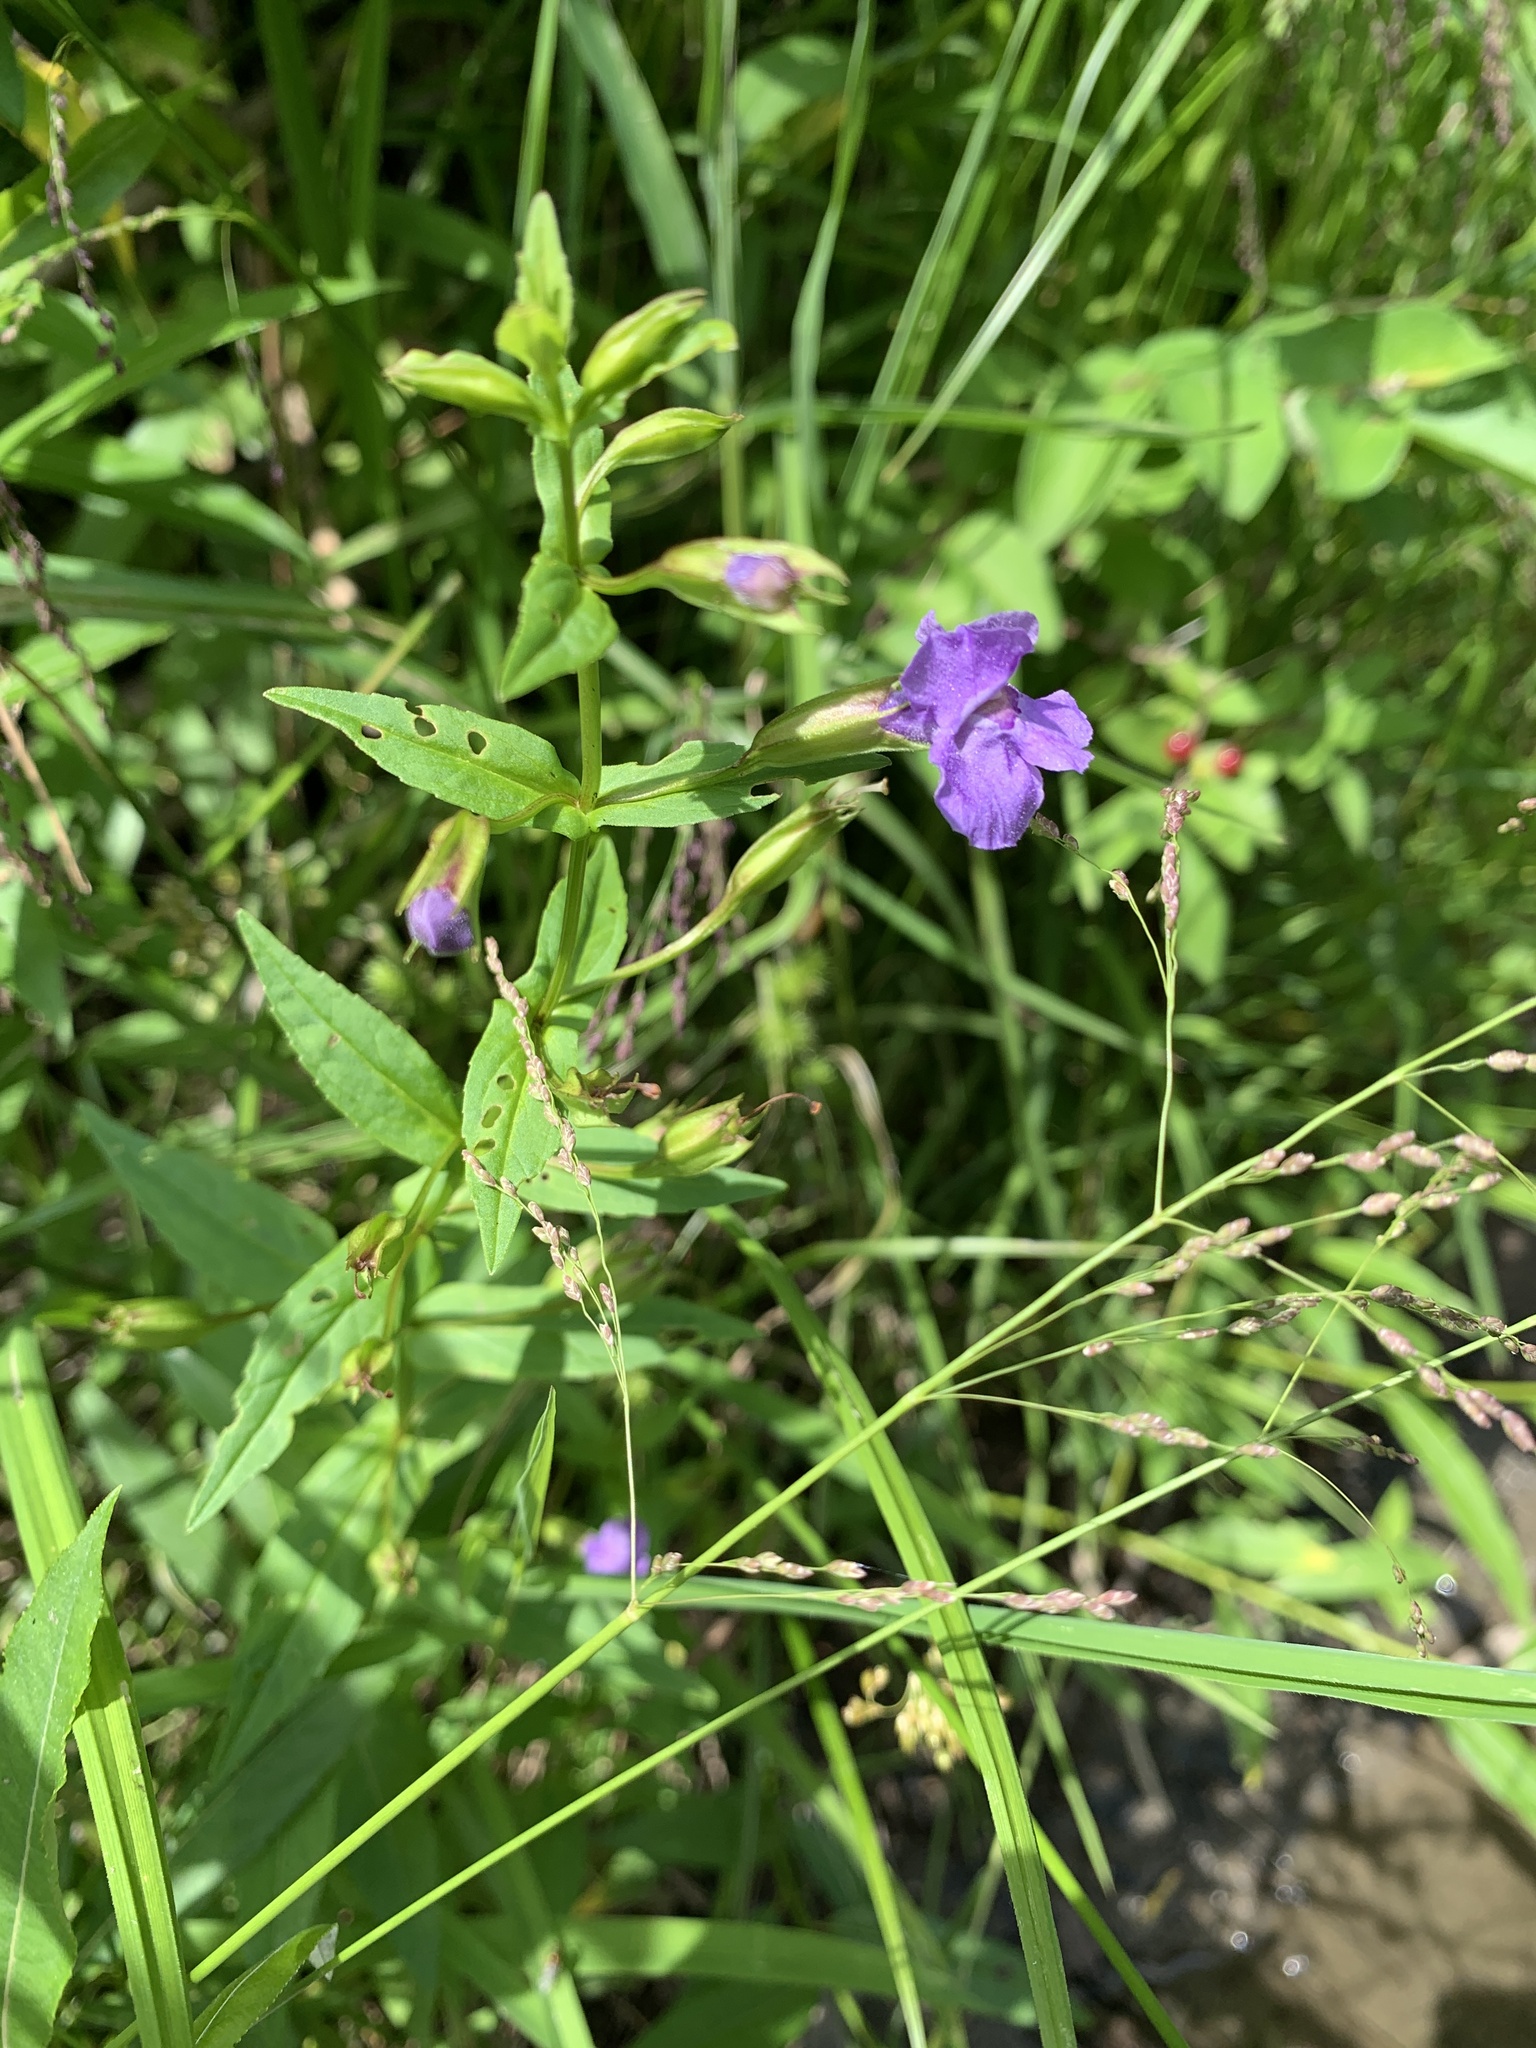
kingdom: Plantae
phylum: Tracheophyta
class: Magnoliopsida
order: Lamiales
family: Phrymaceae
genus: Mimulus
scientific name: Mimulus ringens
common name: Allegheny monkeyflower
